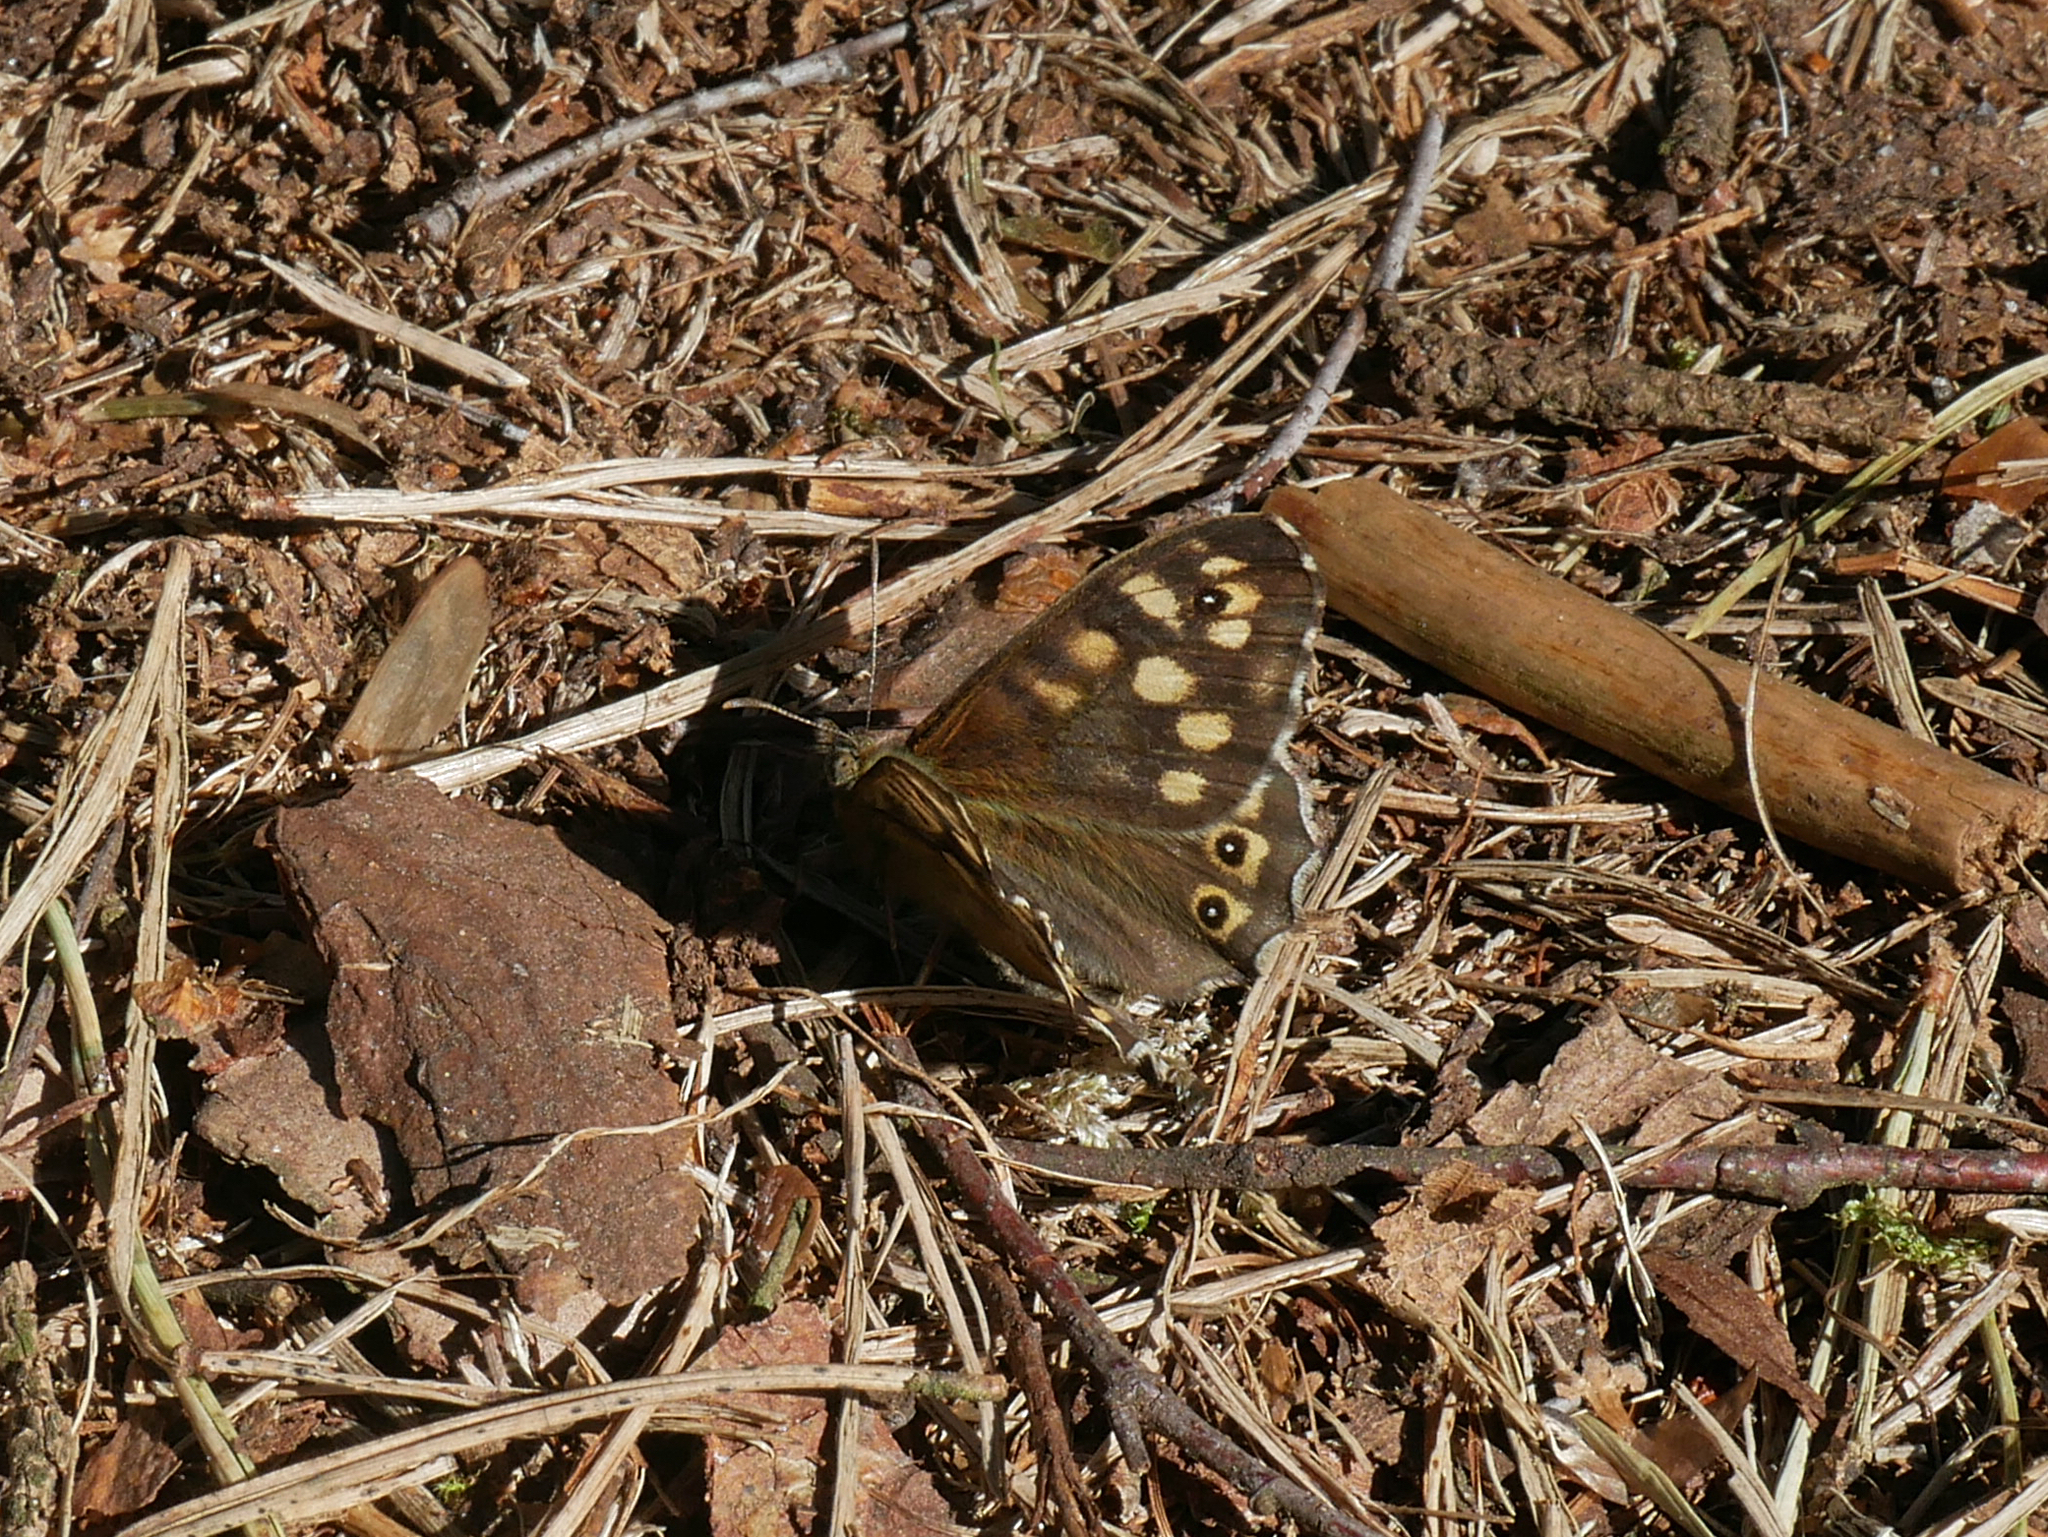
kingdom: Animalia
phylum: Arthropoda
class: Insecta
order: Lepidoptera
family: Nymphalidae
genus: Pararge
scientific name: Pararge aegeria
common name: Speckled wood
